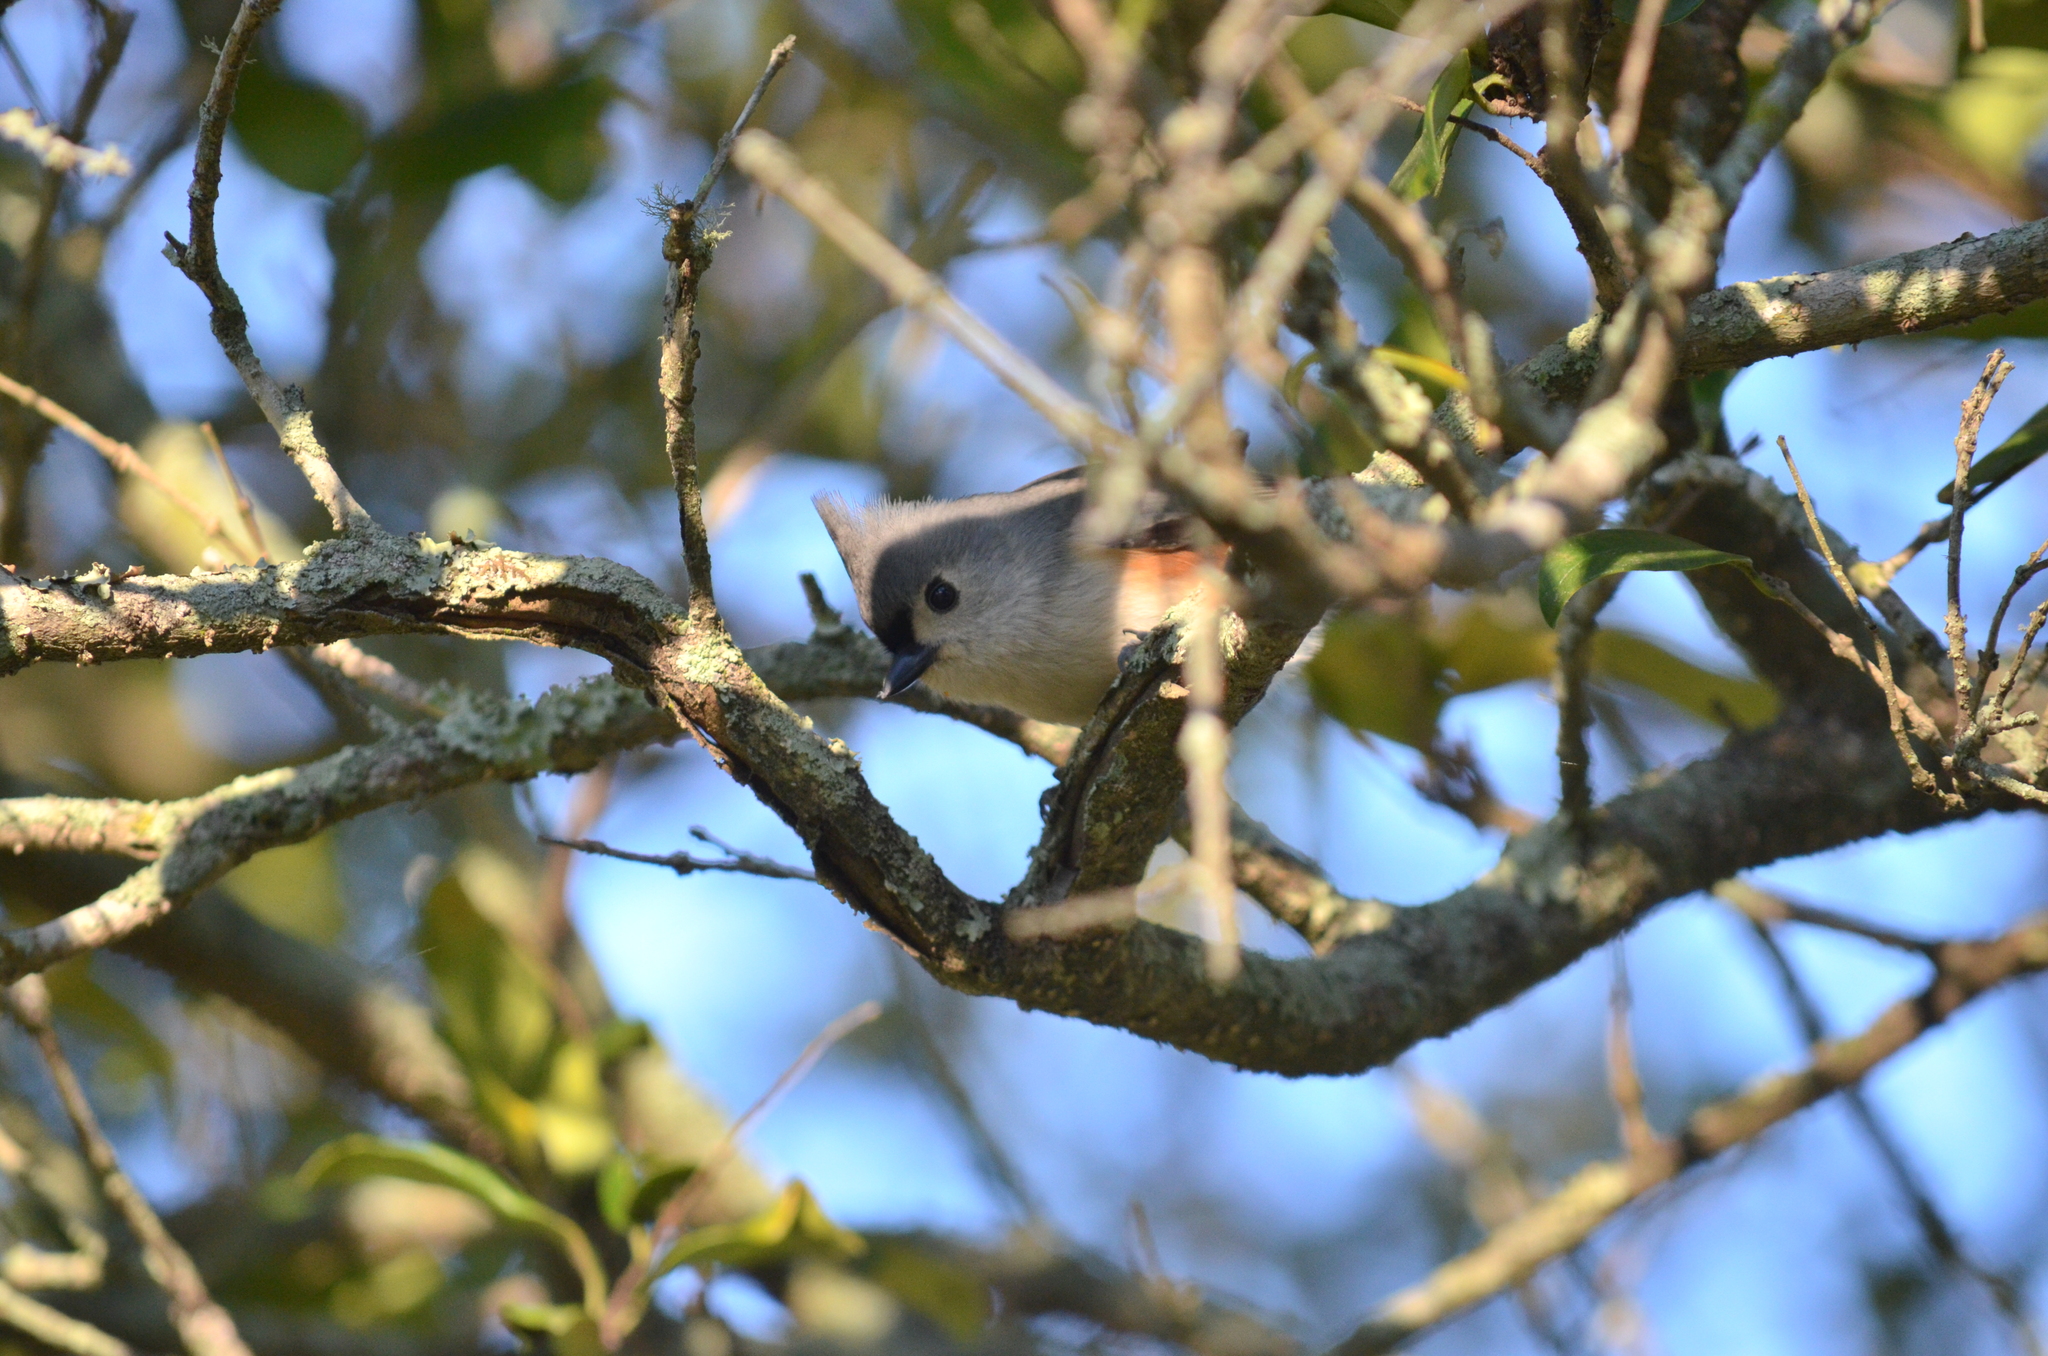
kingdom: Animalia
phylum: Chordata
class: Aves
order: Passeriformes
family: Paridae
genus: Baeolophus
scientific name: Baeolophus bicolor
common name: Tufted titmouse
